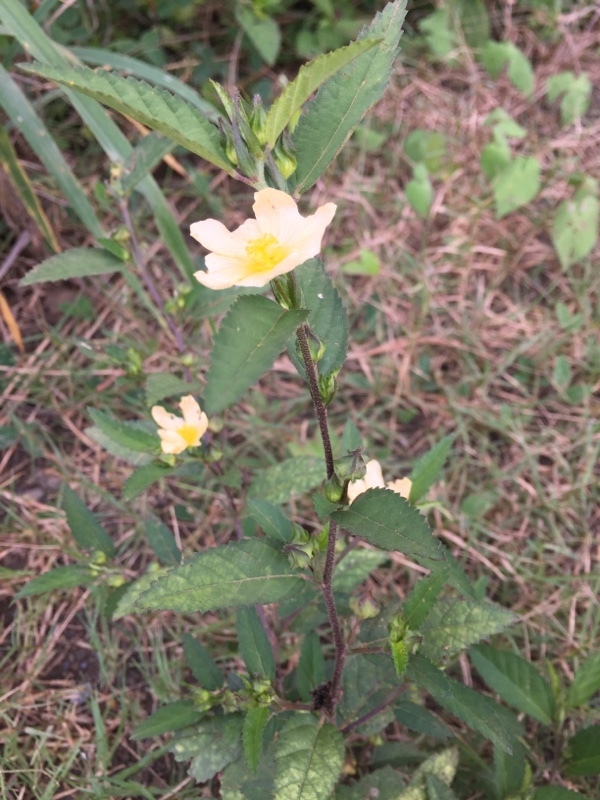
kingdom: Plantae
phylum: Tracheophyta
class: Magnoliopsida
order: Malvales
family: Malvaceae
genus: Sida
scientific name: Sida rhombifolia
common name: Queensland-hemp
